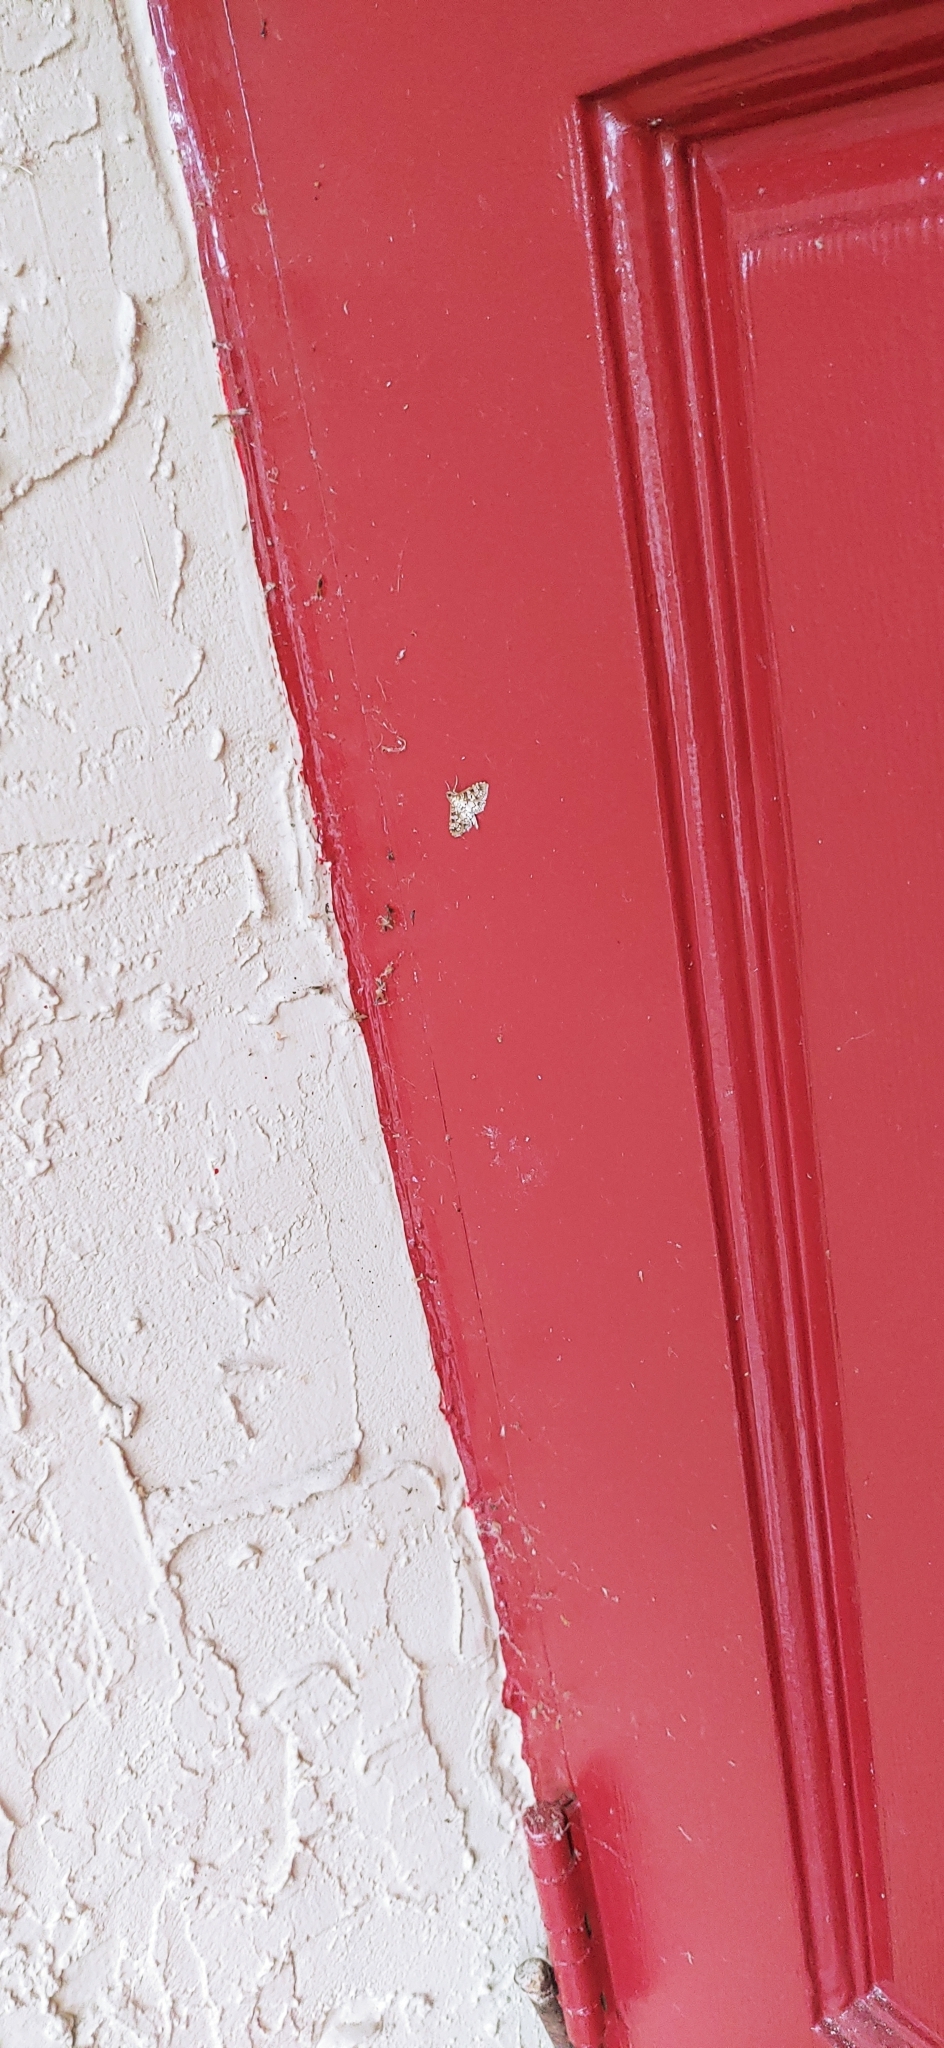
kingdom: Animalia
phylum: Arthropoda
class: Insecta
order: Lepidoptera
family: Crambidae
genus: Samea
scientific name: Samea ecclesialis
